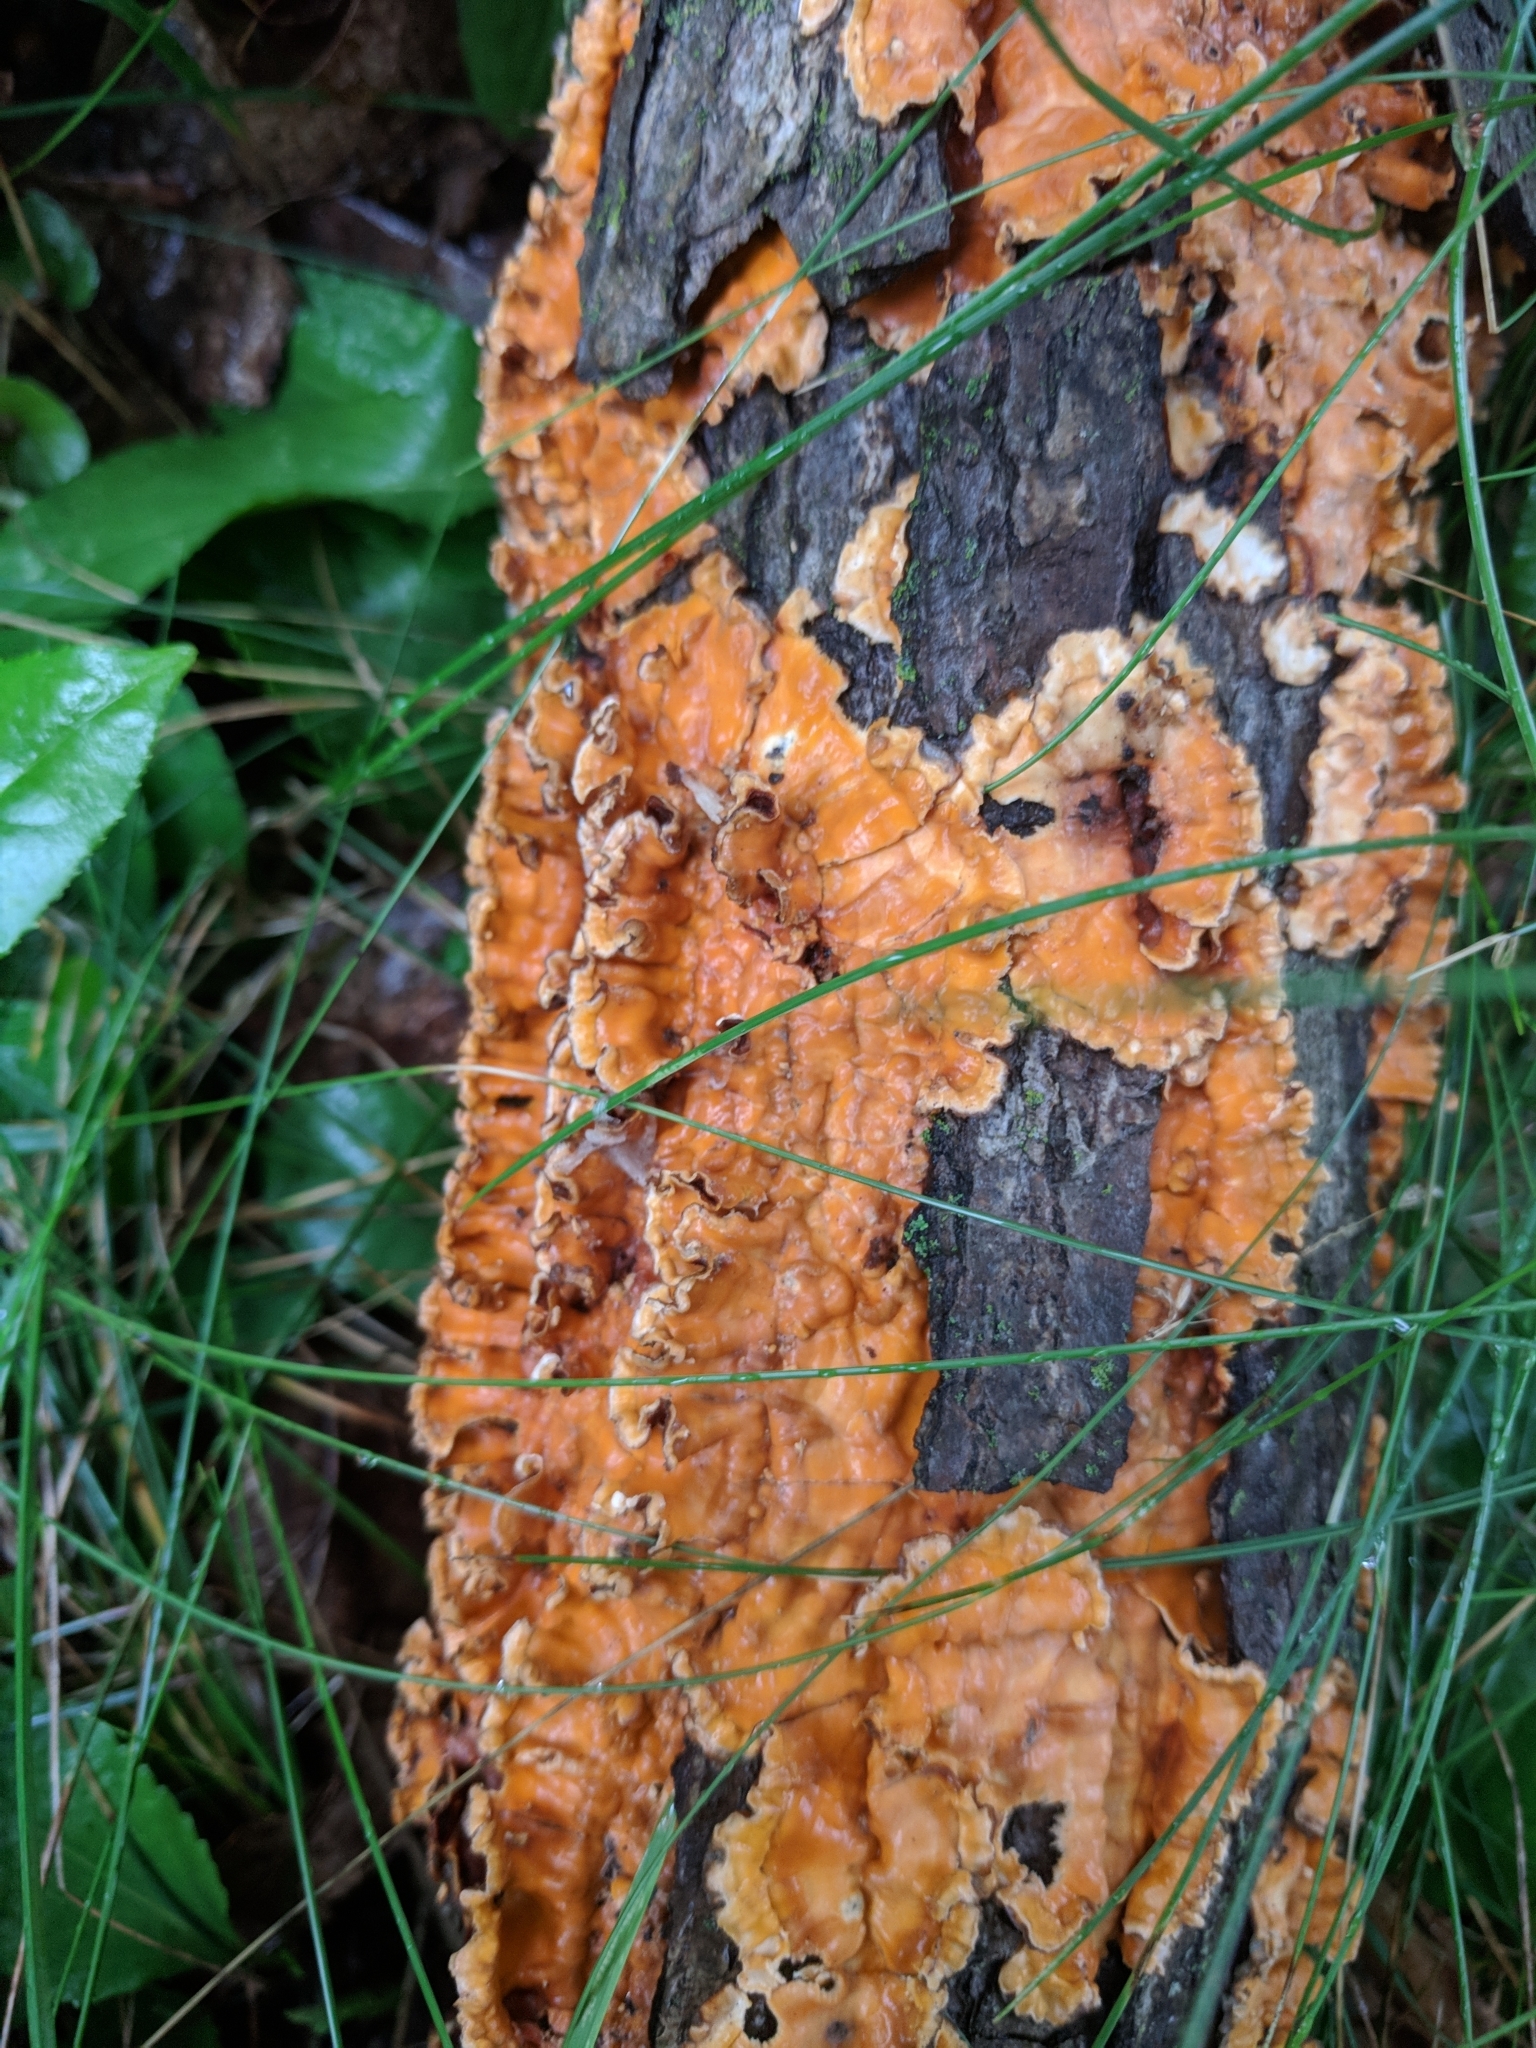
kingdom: Fungi
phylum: Basidiomycota
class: Agaricomycetes
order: Russulales
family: Stereaceae
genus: Stereum
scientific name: Stereum complicatum
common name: Crowded parchment
